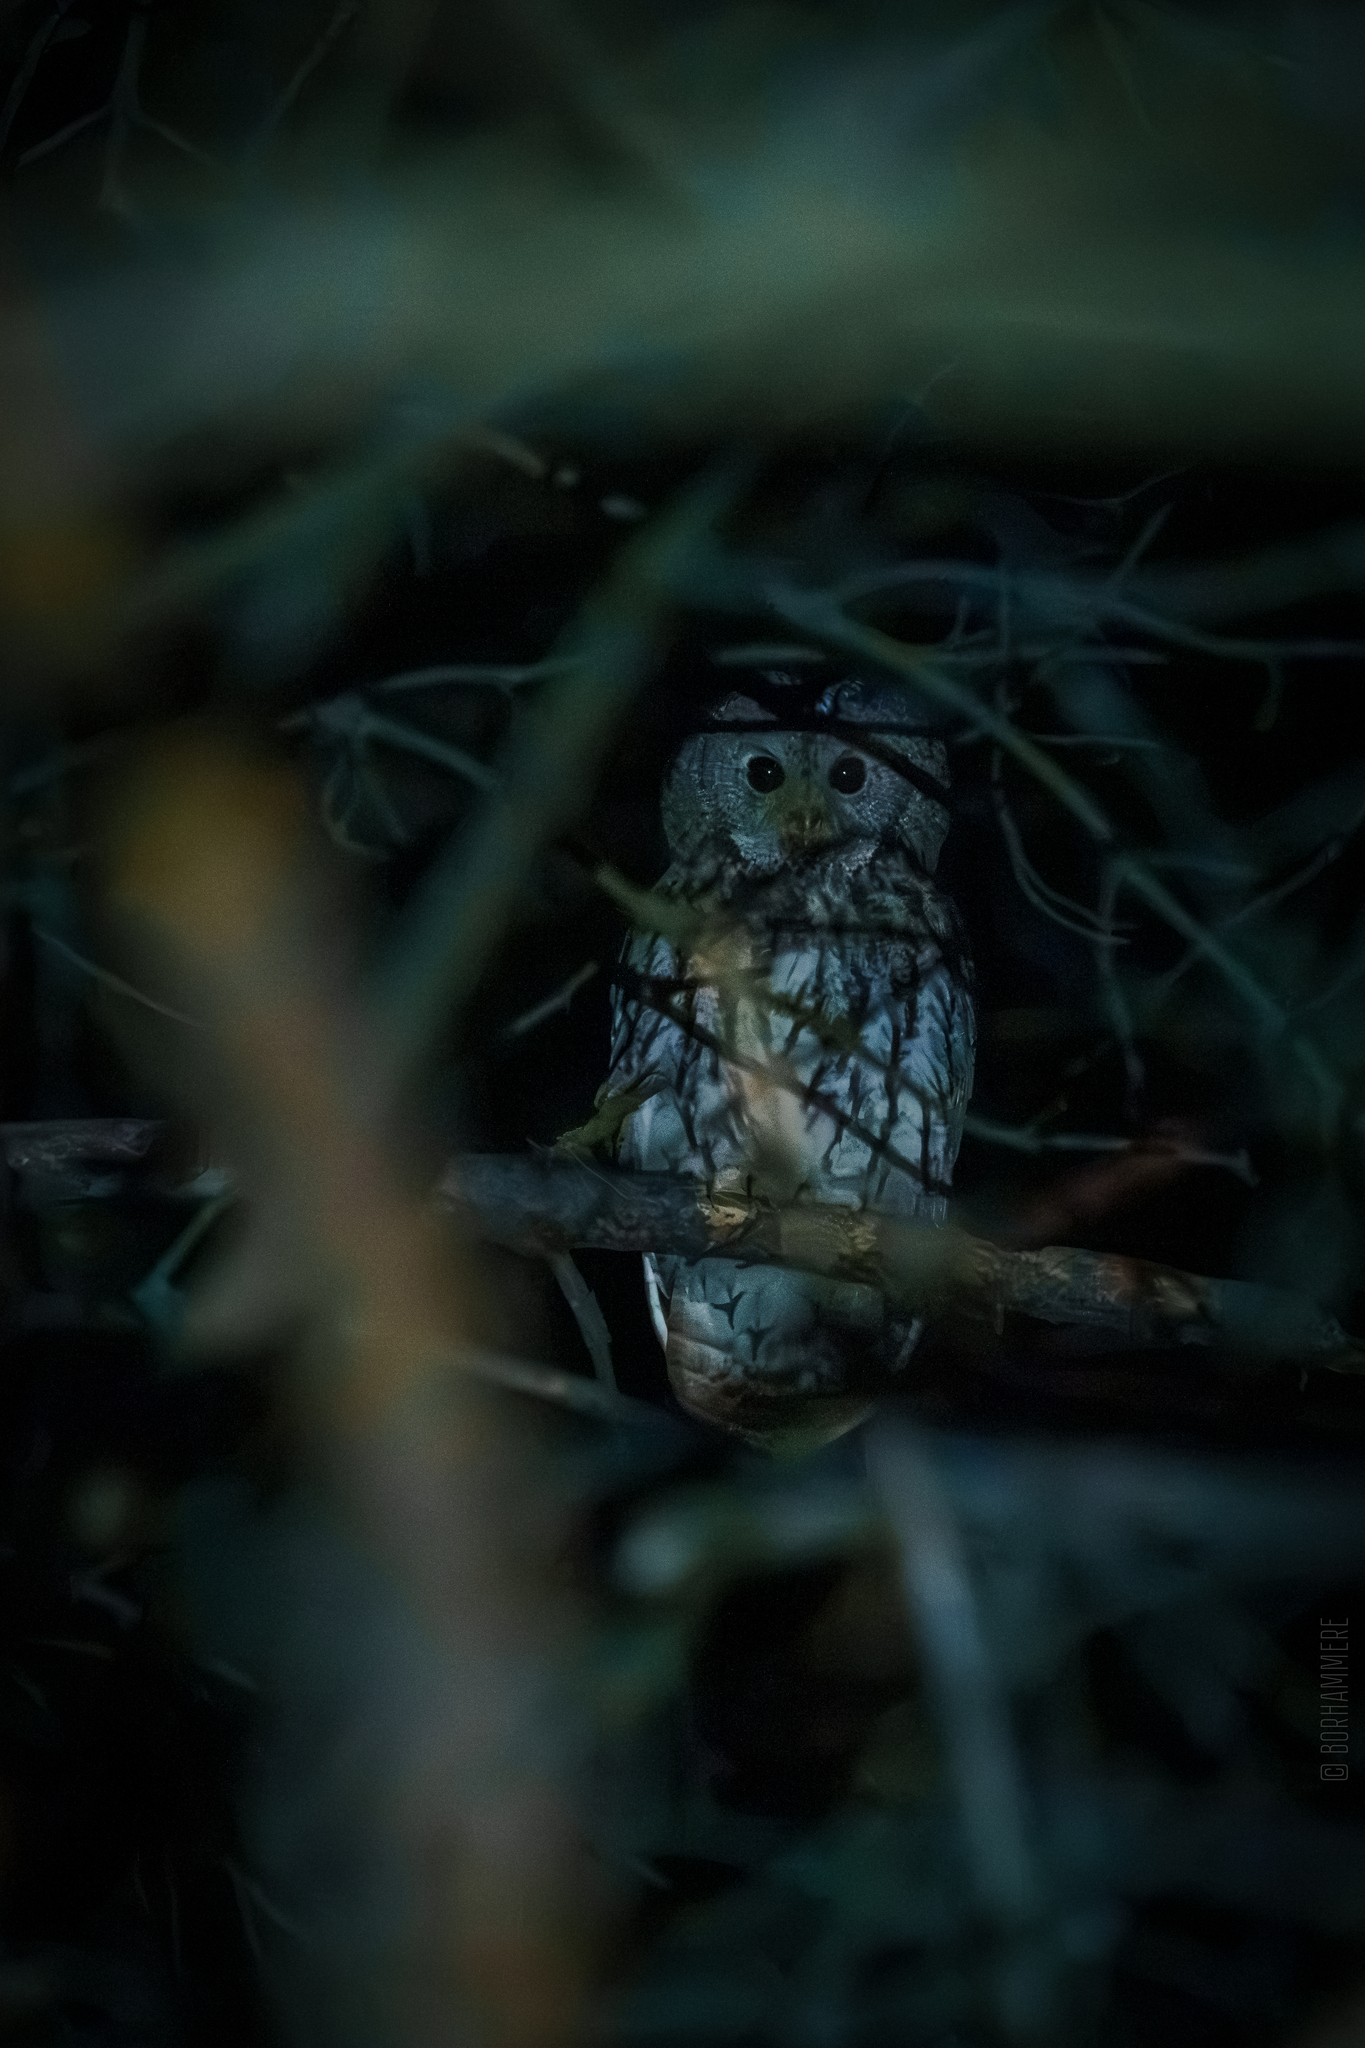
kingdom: Animalia
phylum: Chordata
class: Aves
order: Strigiformes
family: Strigidae
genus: Strix
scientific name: Strix aluco
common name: Tawny owl
